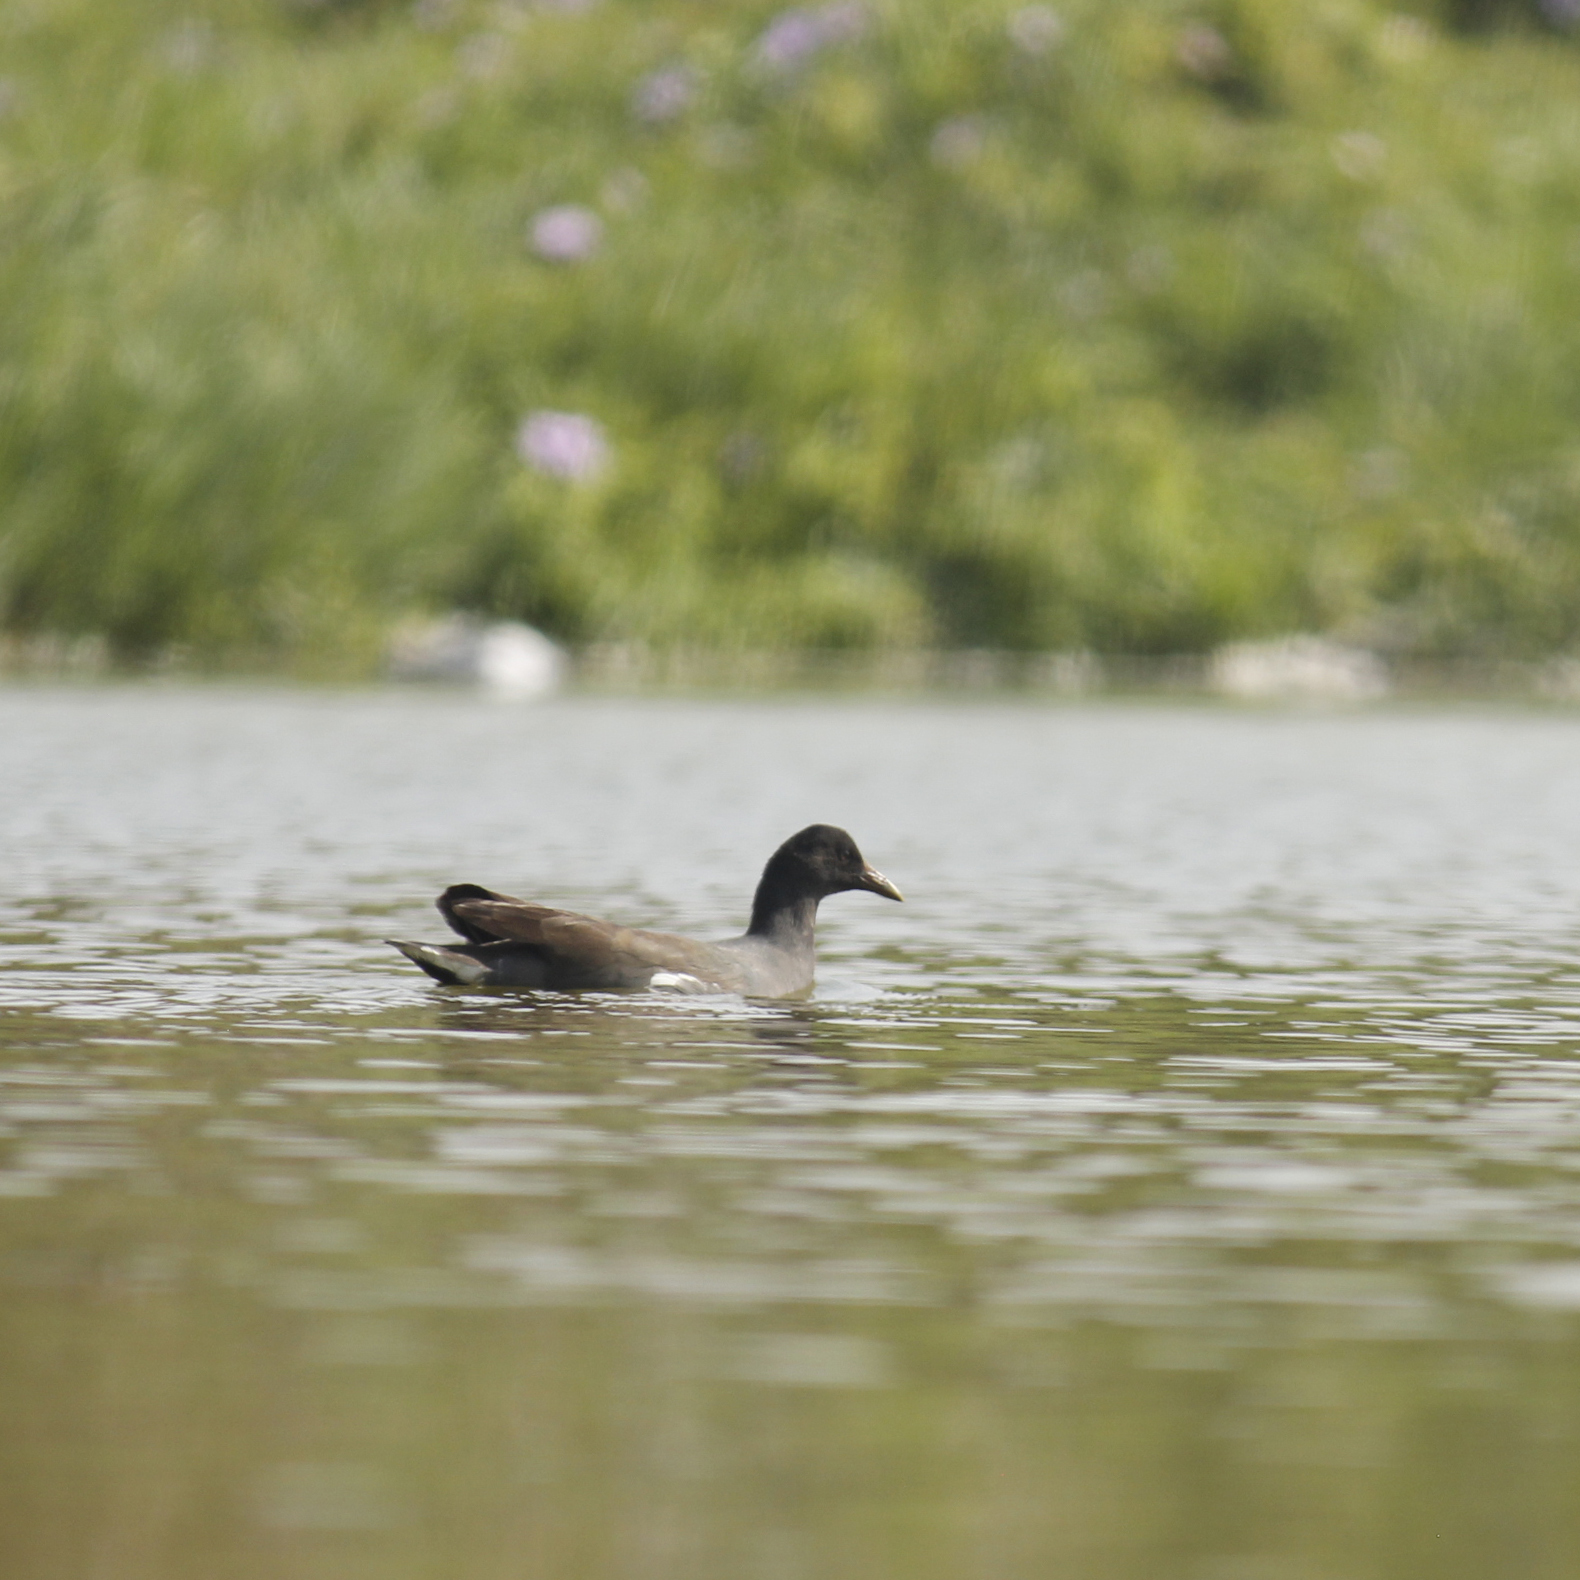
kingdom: Animalia
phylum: Chordata
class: Aves
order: Gruiformes
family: Rallidae
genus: Gallinula
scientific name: Gallinula chloropus
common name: Common moorhen
